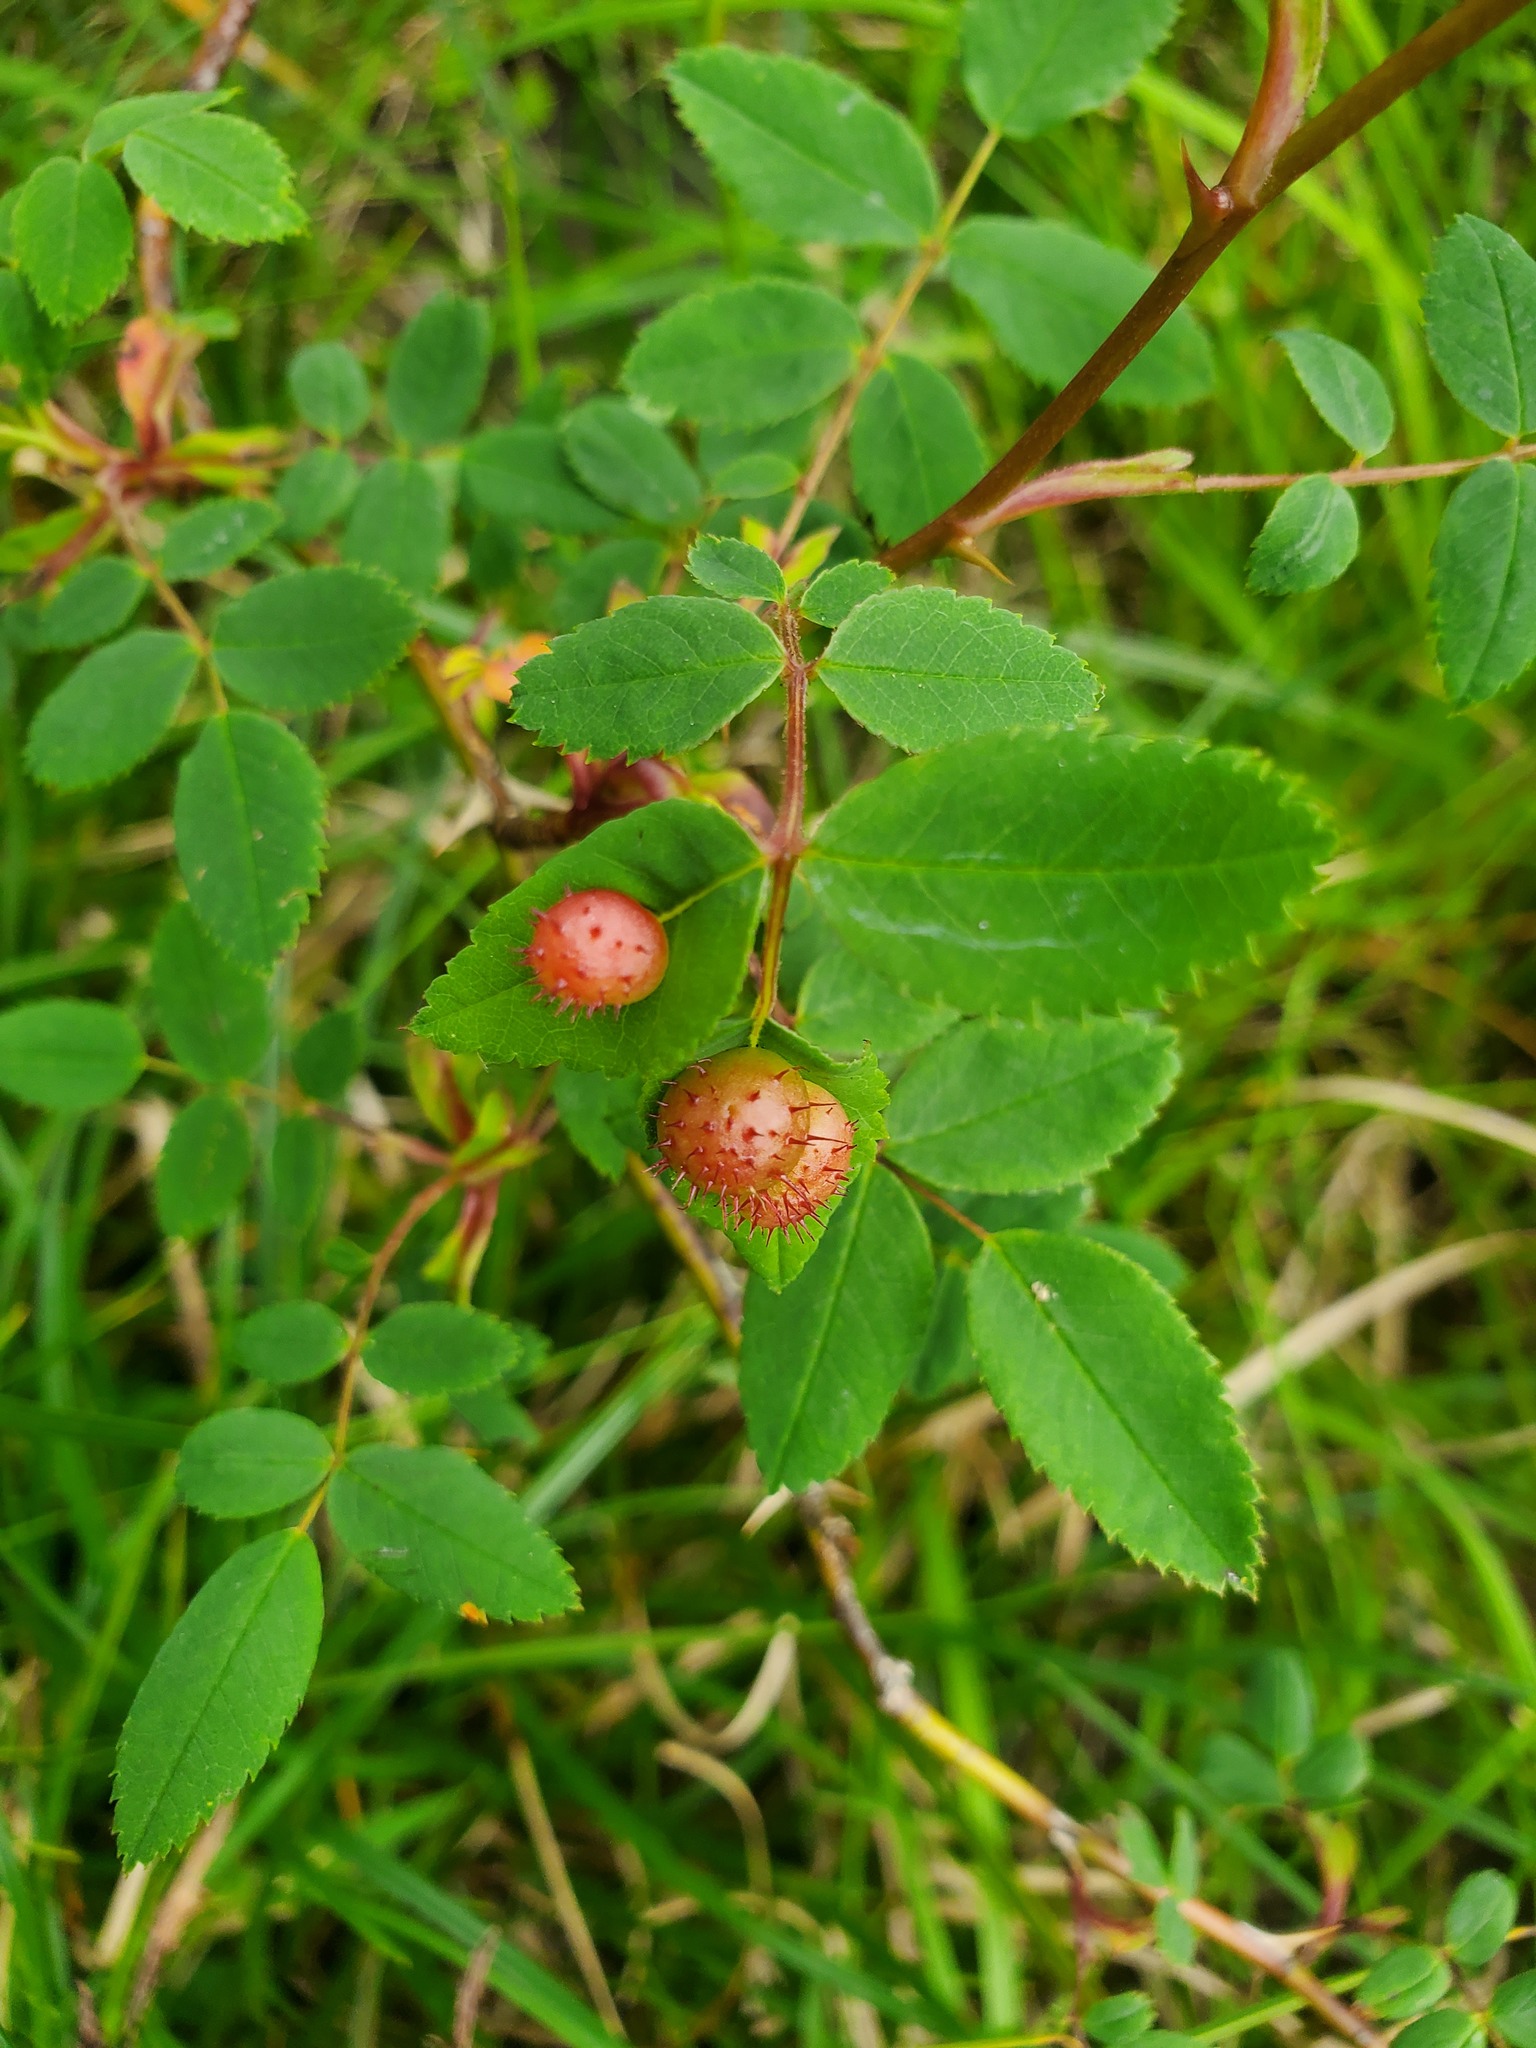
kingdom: Animalia
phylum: Arthropoda
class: Insecta
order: Hymenoptera
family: Cynipidae
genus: Diplolepis
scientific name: Diplolepis polita
